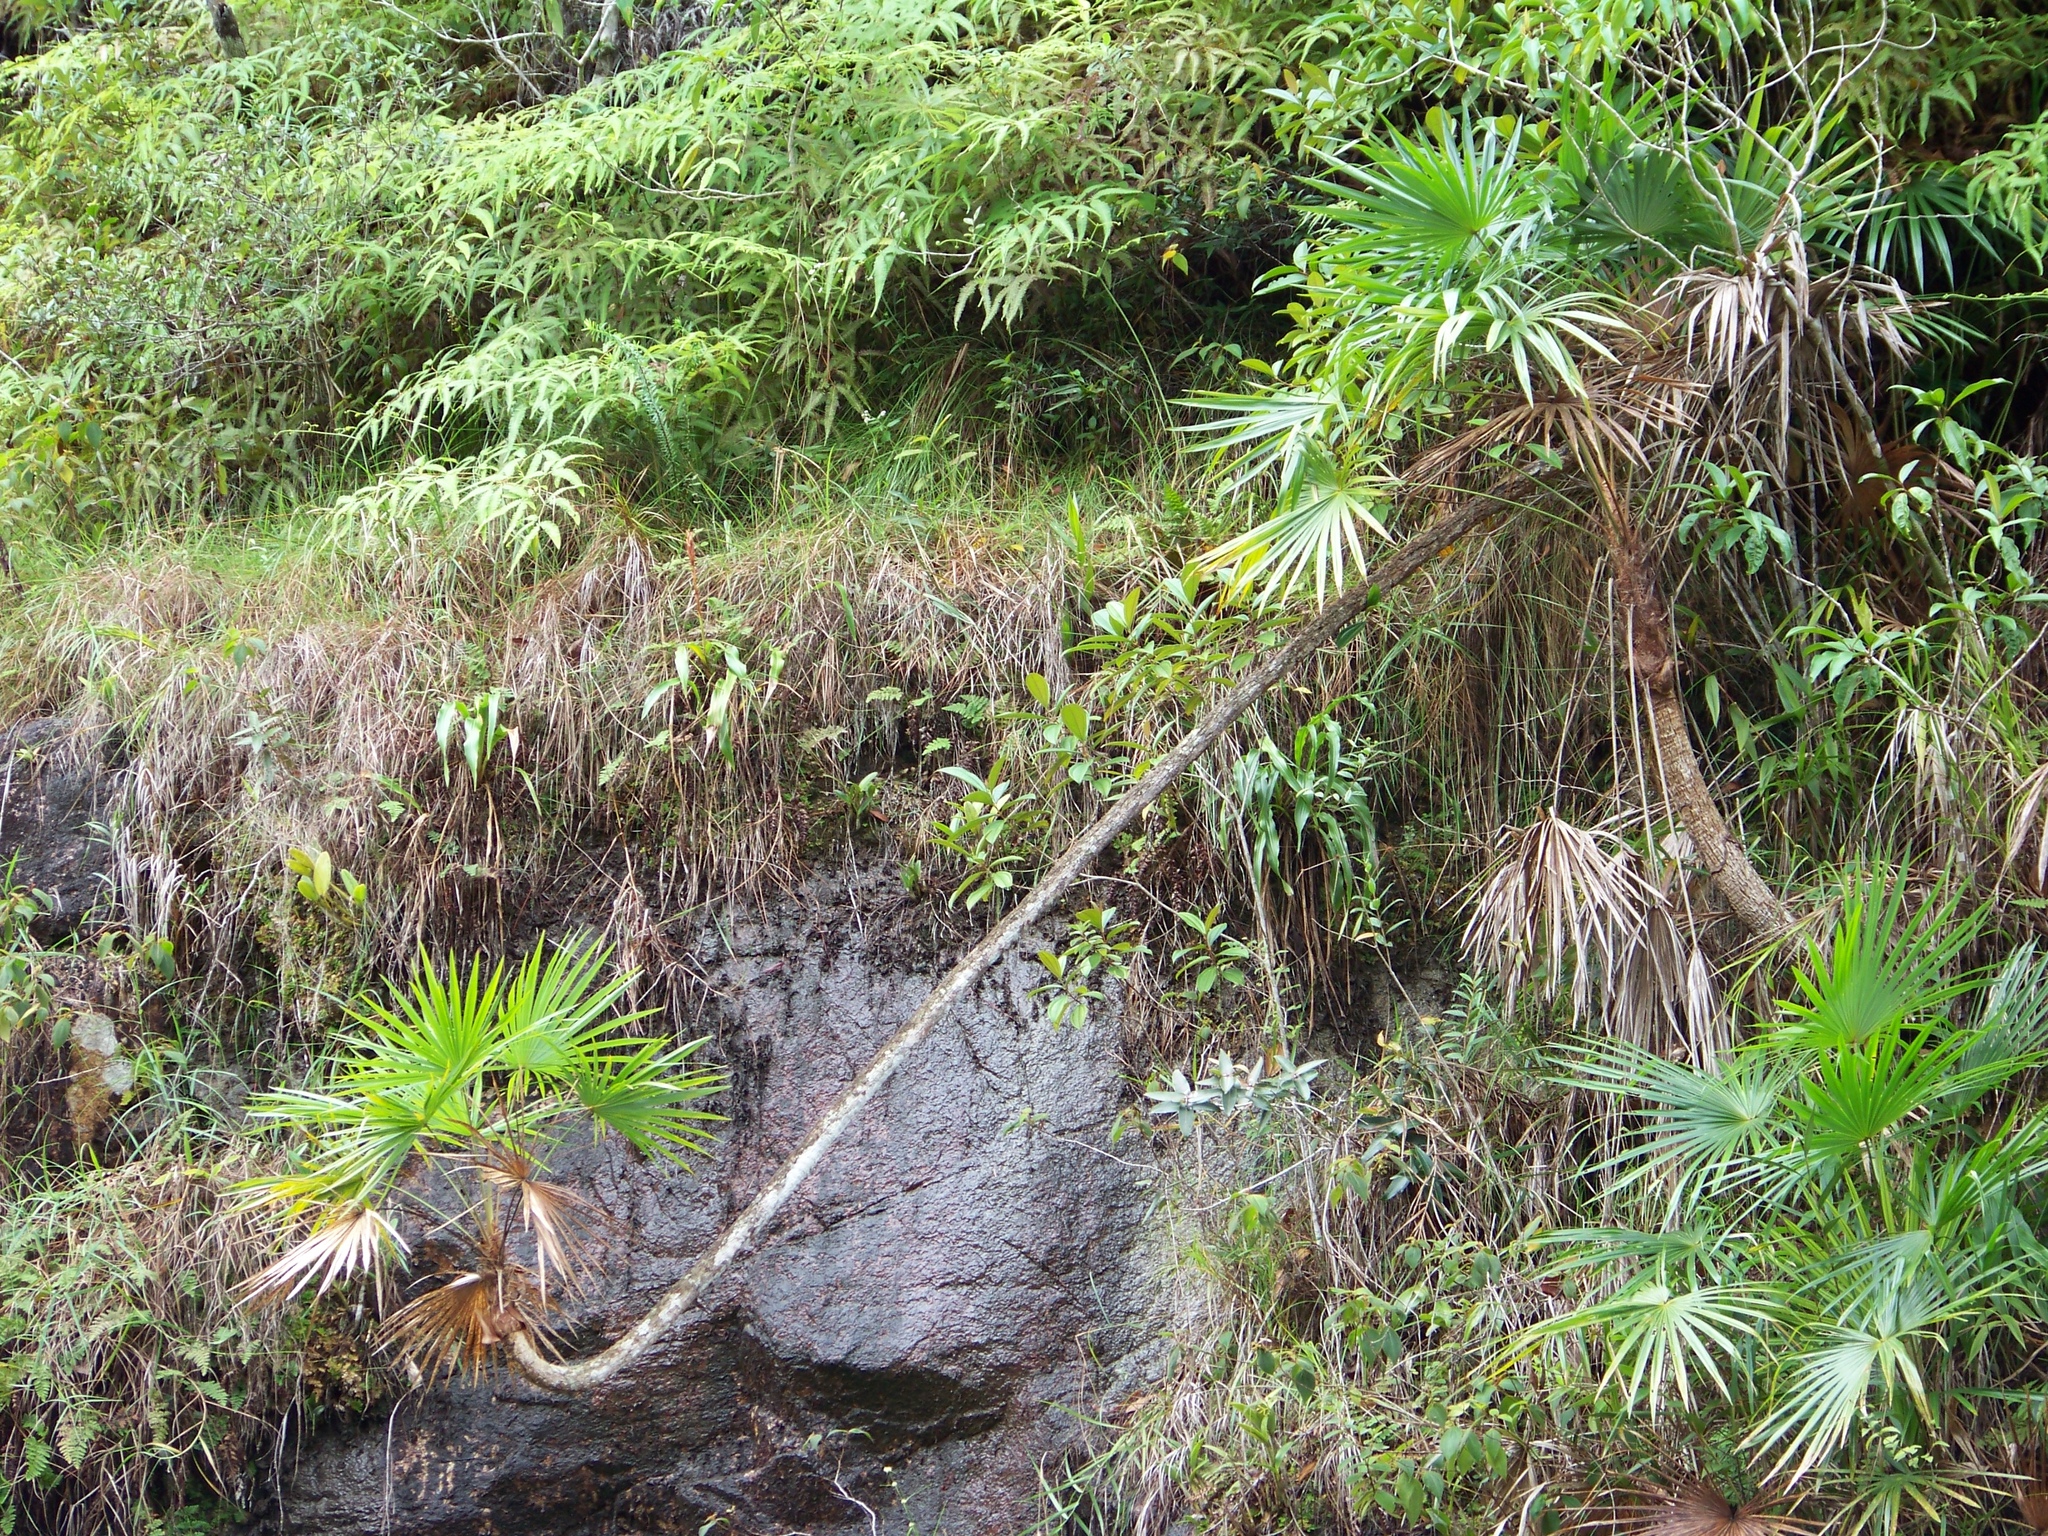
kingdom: Plantae
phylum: Tracheophyta
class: Liliopsida
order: Arecales
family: Arecaceae
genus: Schippia
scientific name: Schippia concolor
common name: Mountain pimento
